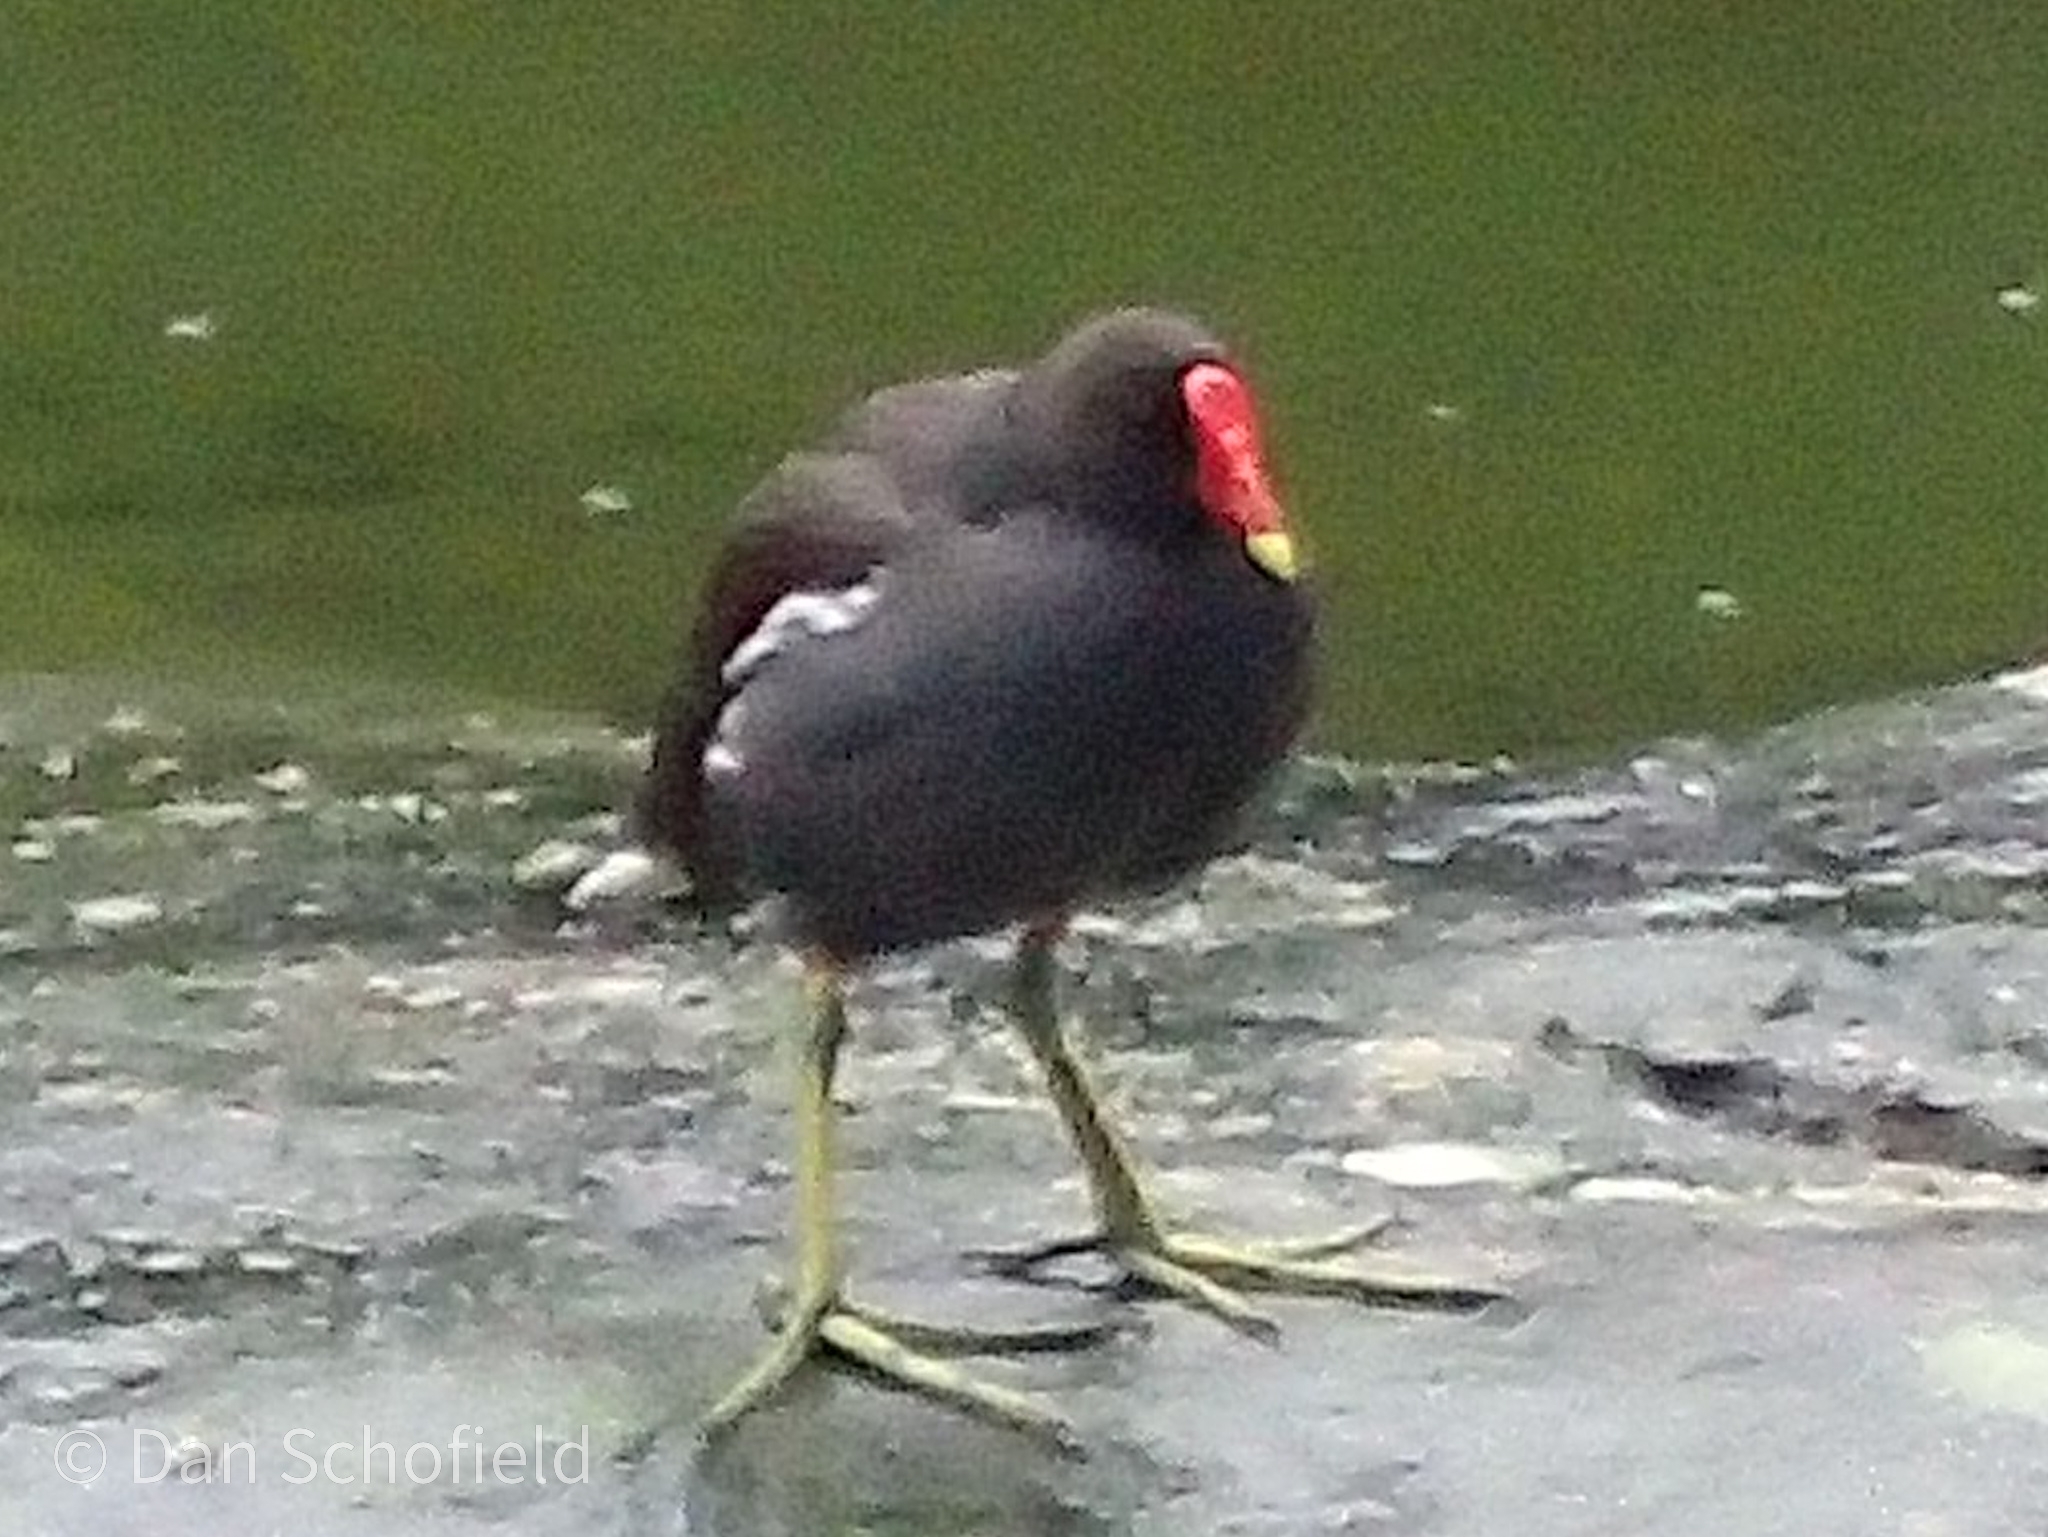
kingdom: Animalia
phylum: Chordata
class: Aves
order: Gruiformes
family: Rallidae
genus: Gallinula
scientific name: Gallinula chloropus
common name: Common moorhen
